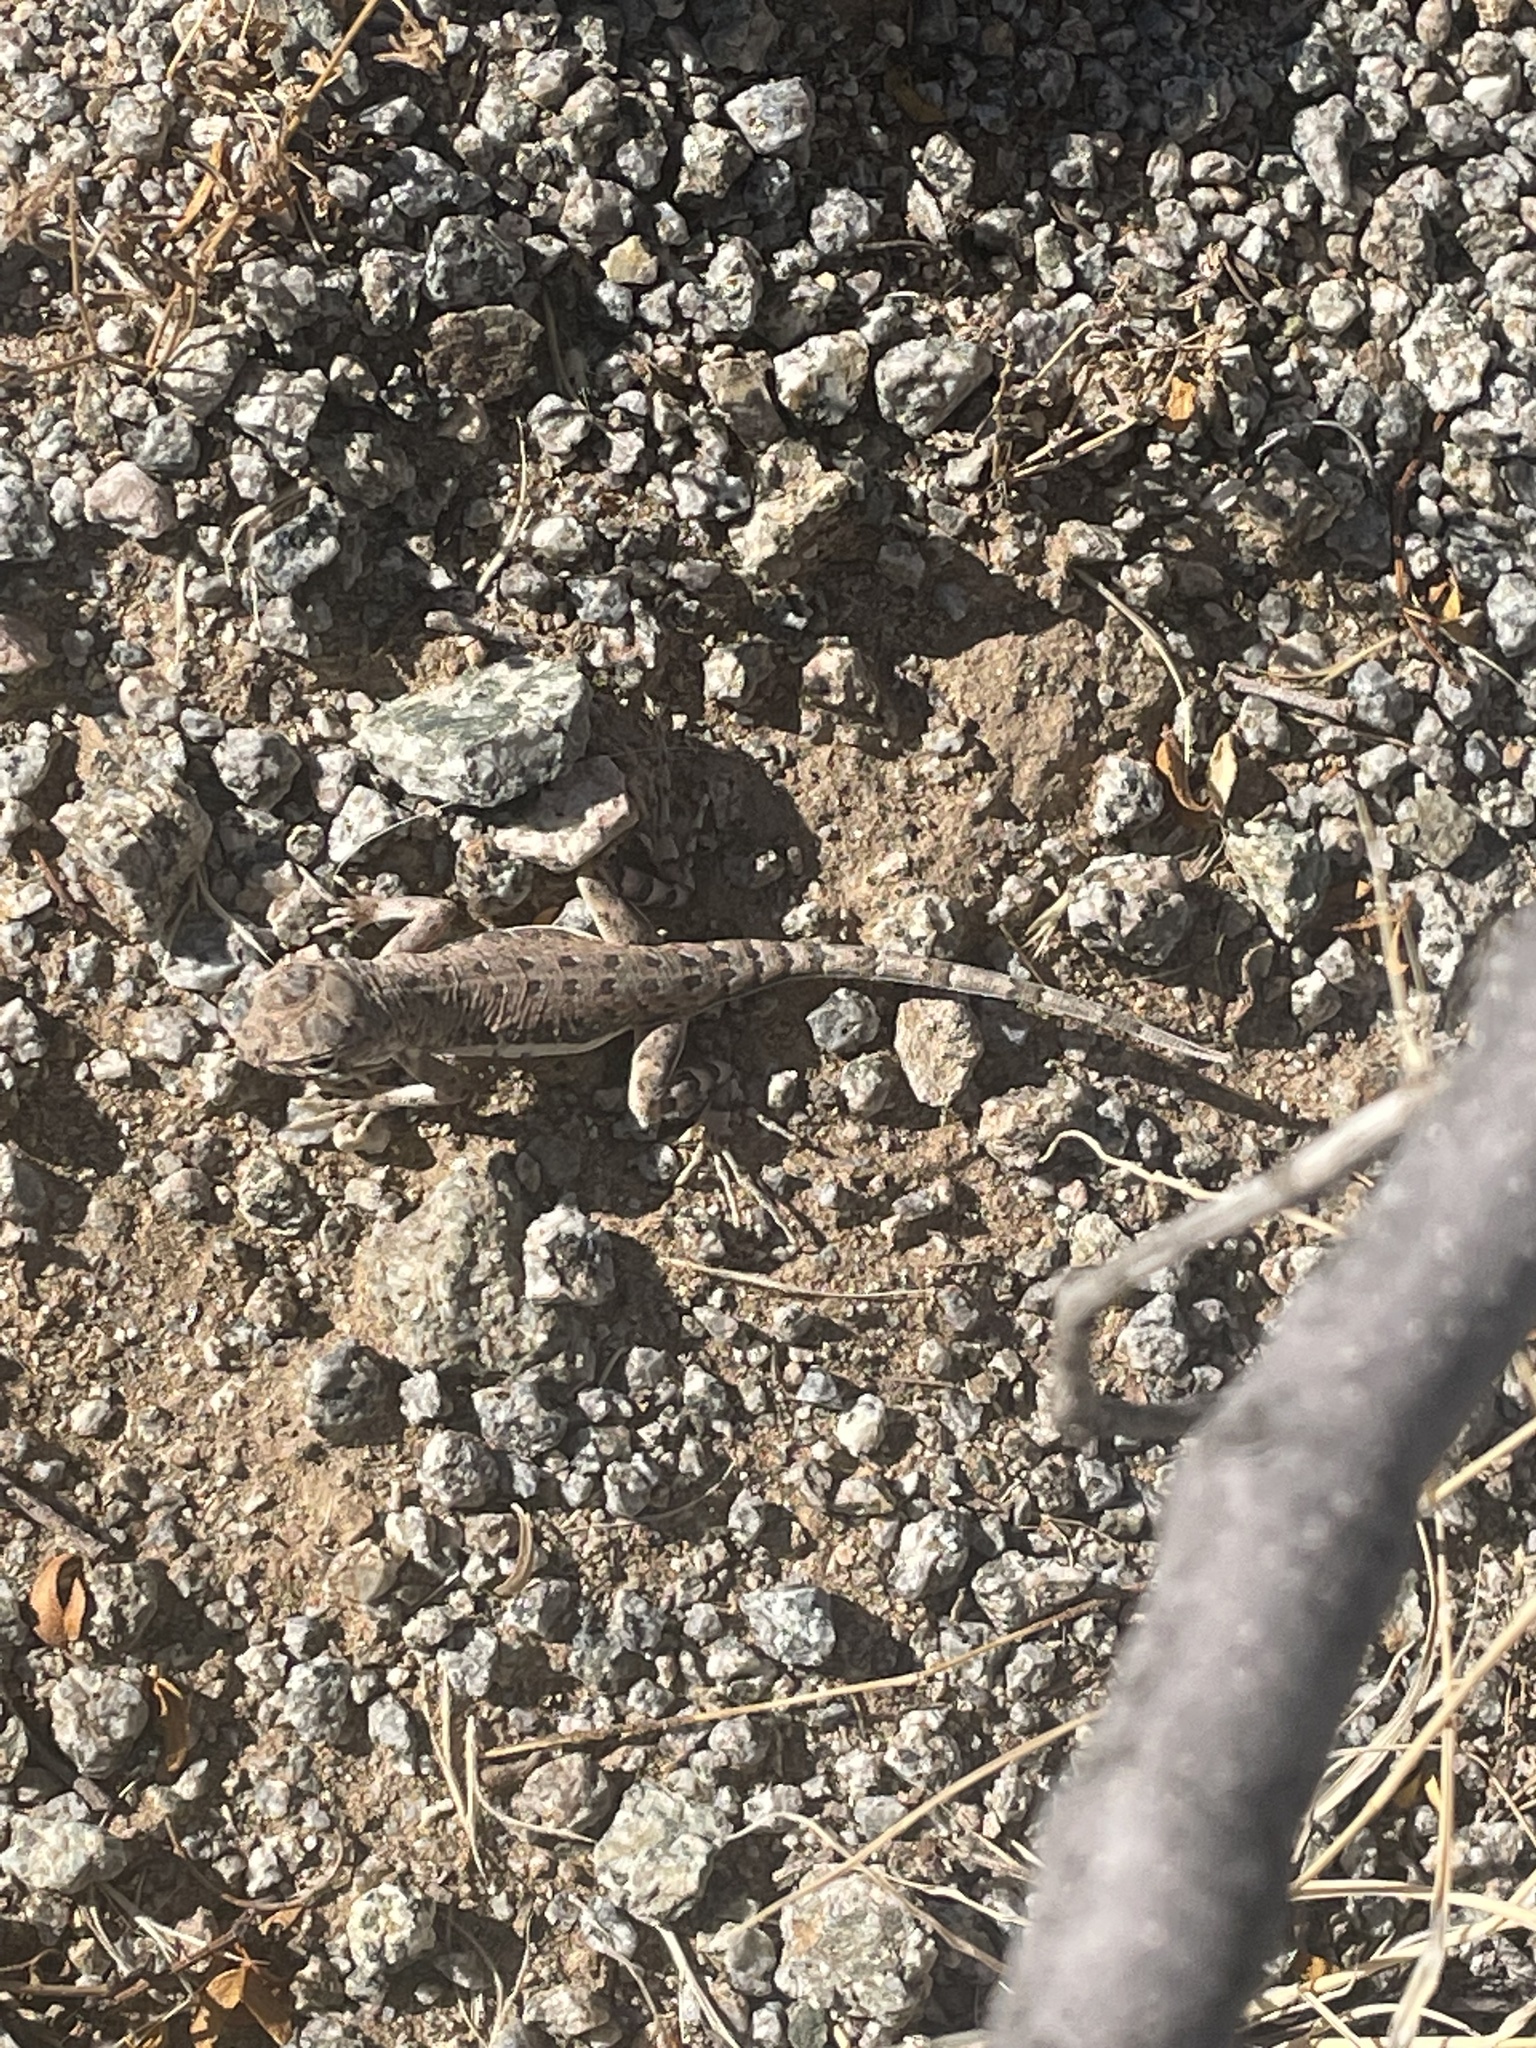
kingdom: Animalia
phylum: Chordata
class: Squamata
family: Phrynosomatidae
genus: Callisaurus
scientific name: Callisaurus draconoides
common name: Zebra-tailed lizard
